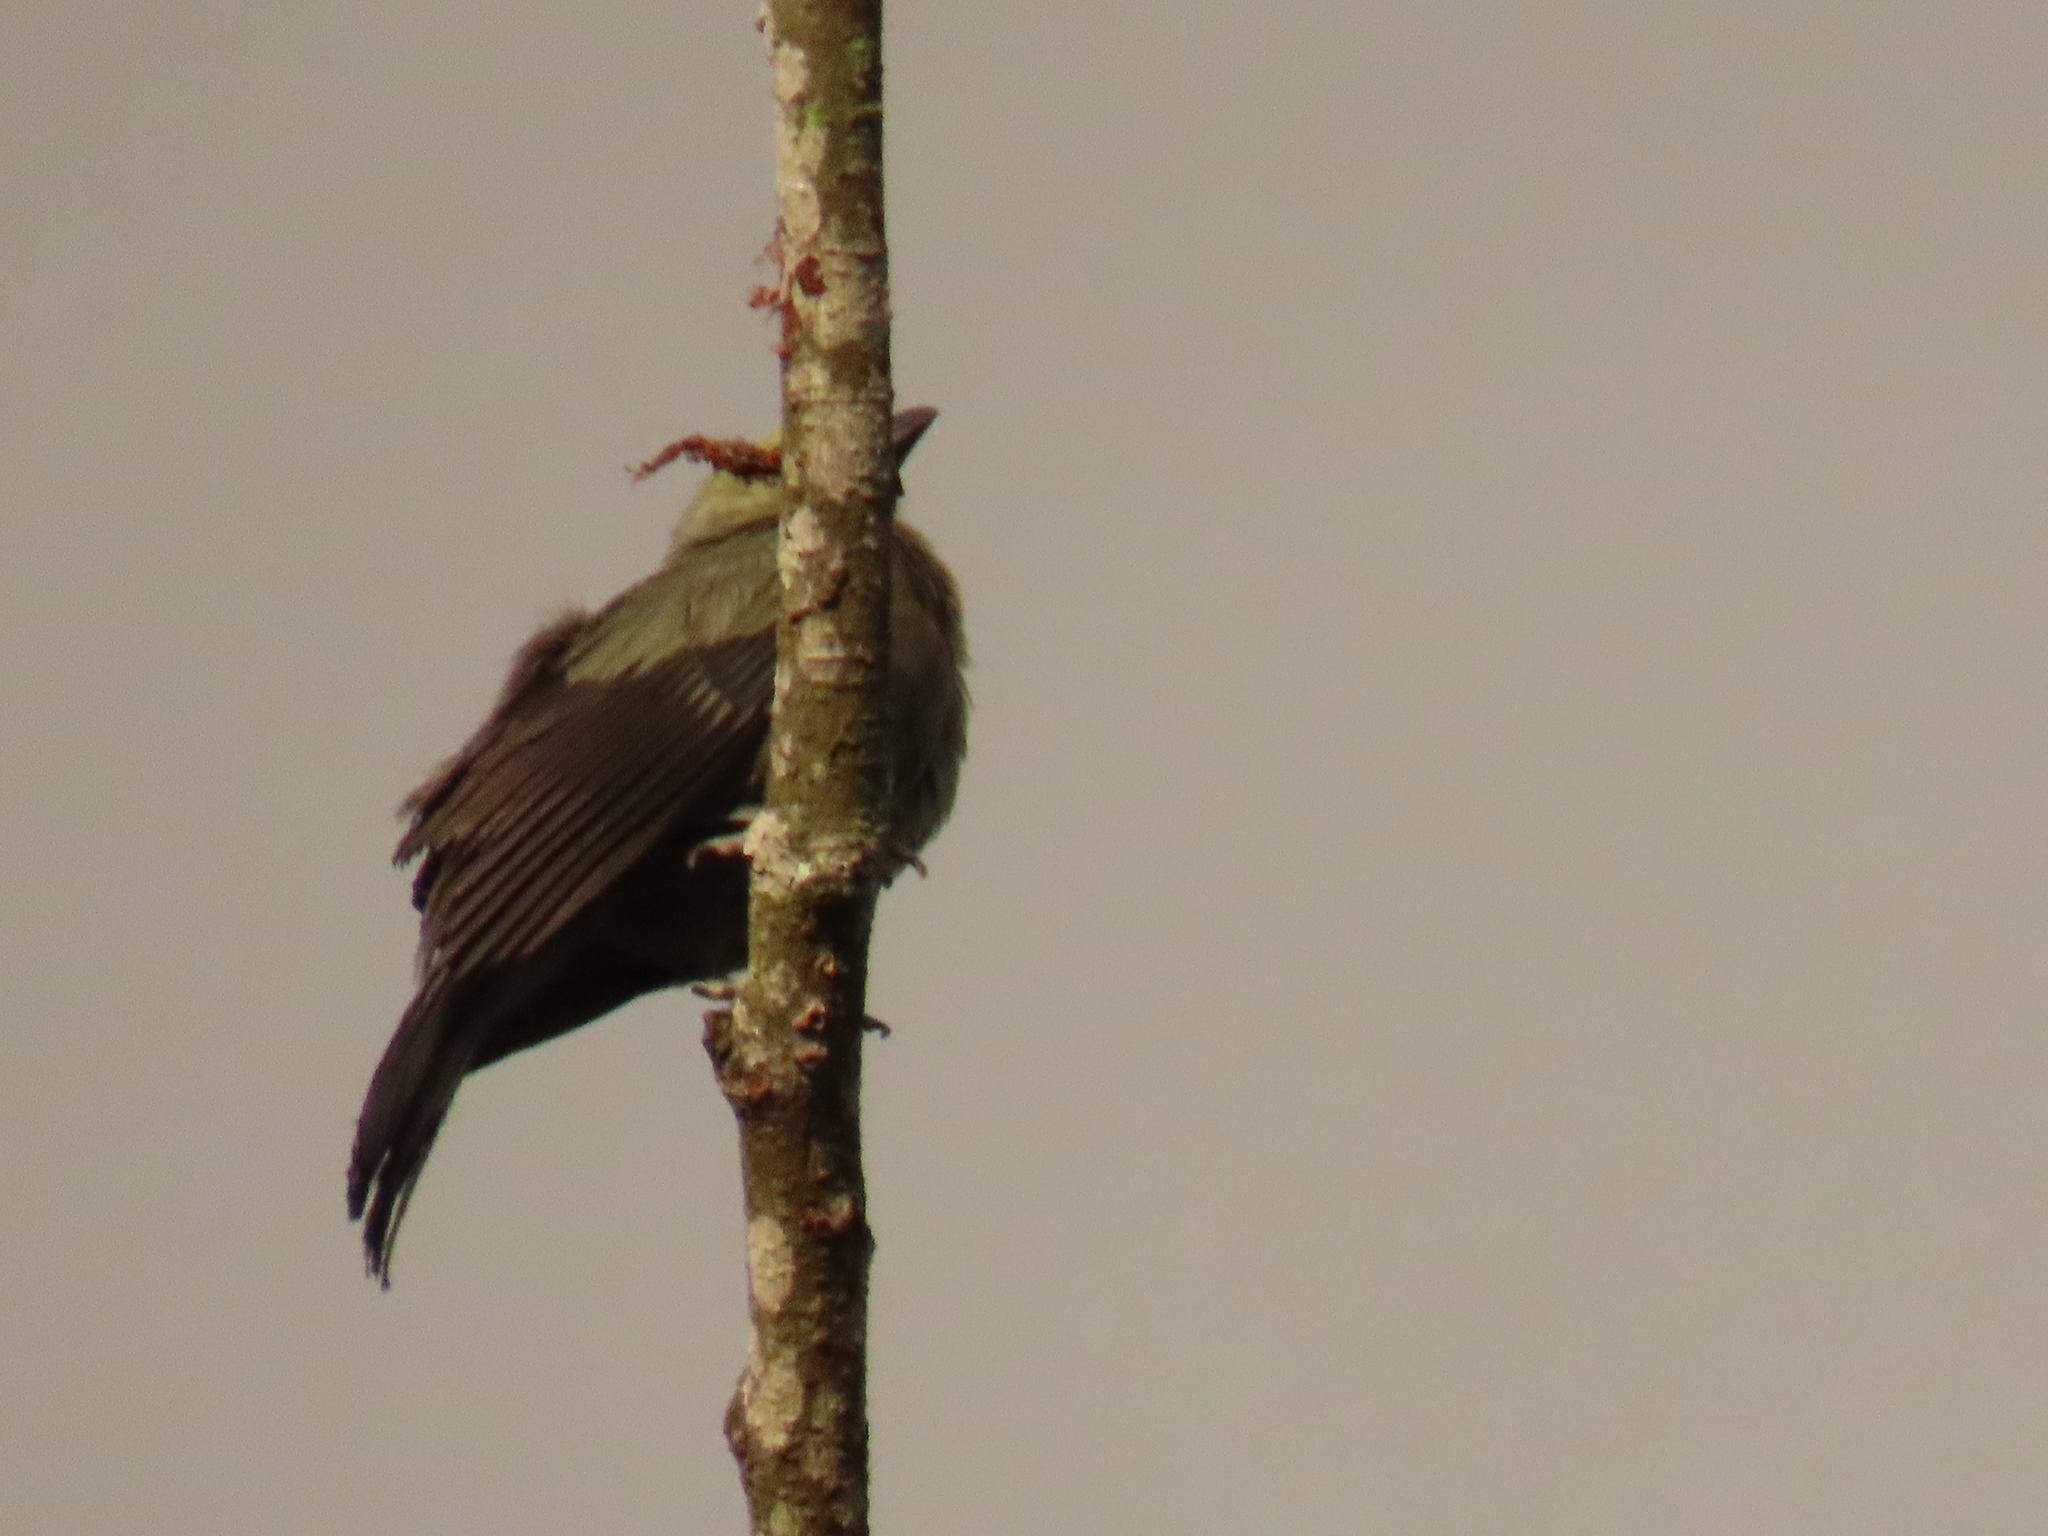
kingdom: Animalia
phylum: Chordata
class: Aves
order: Passeriformes
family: Thraupidae
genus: Thraupis
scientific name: Thraupis palmarum
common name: Palm tanager
